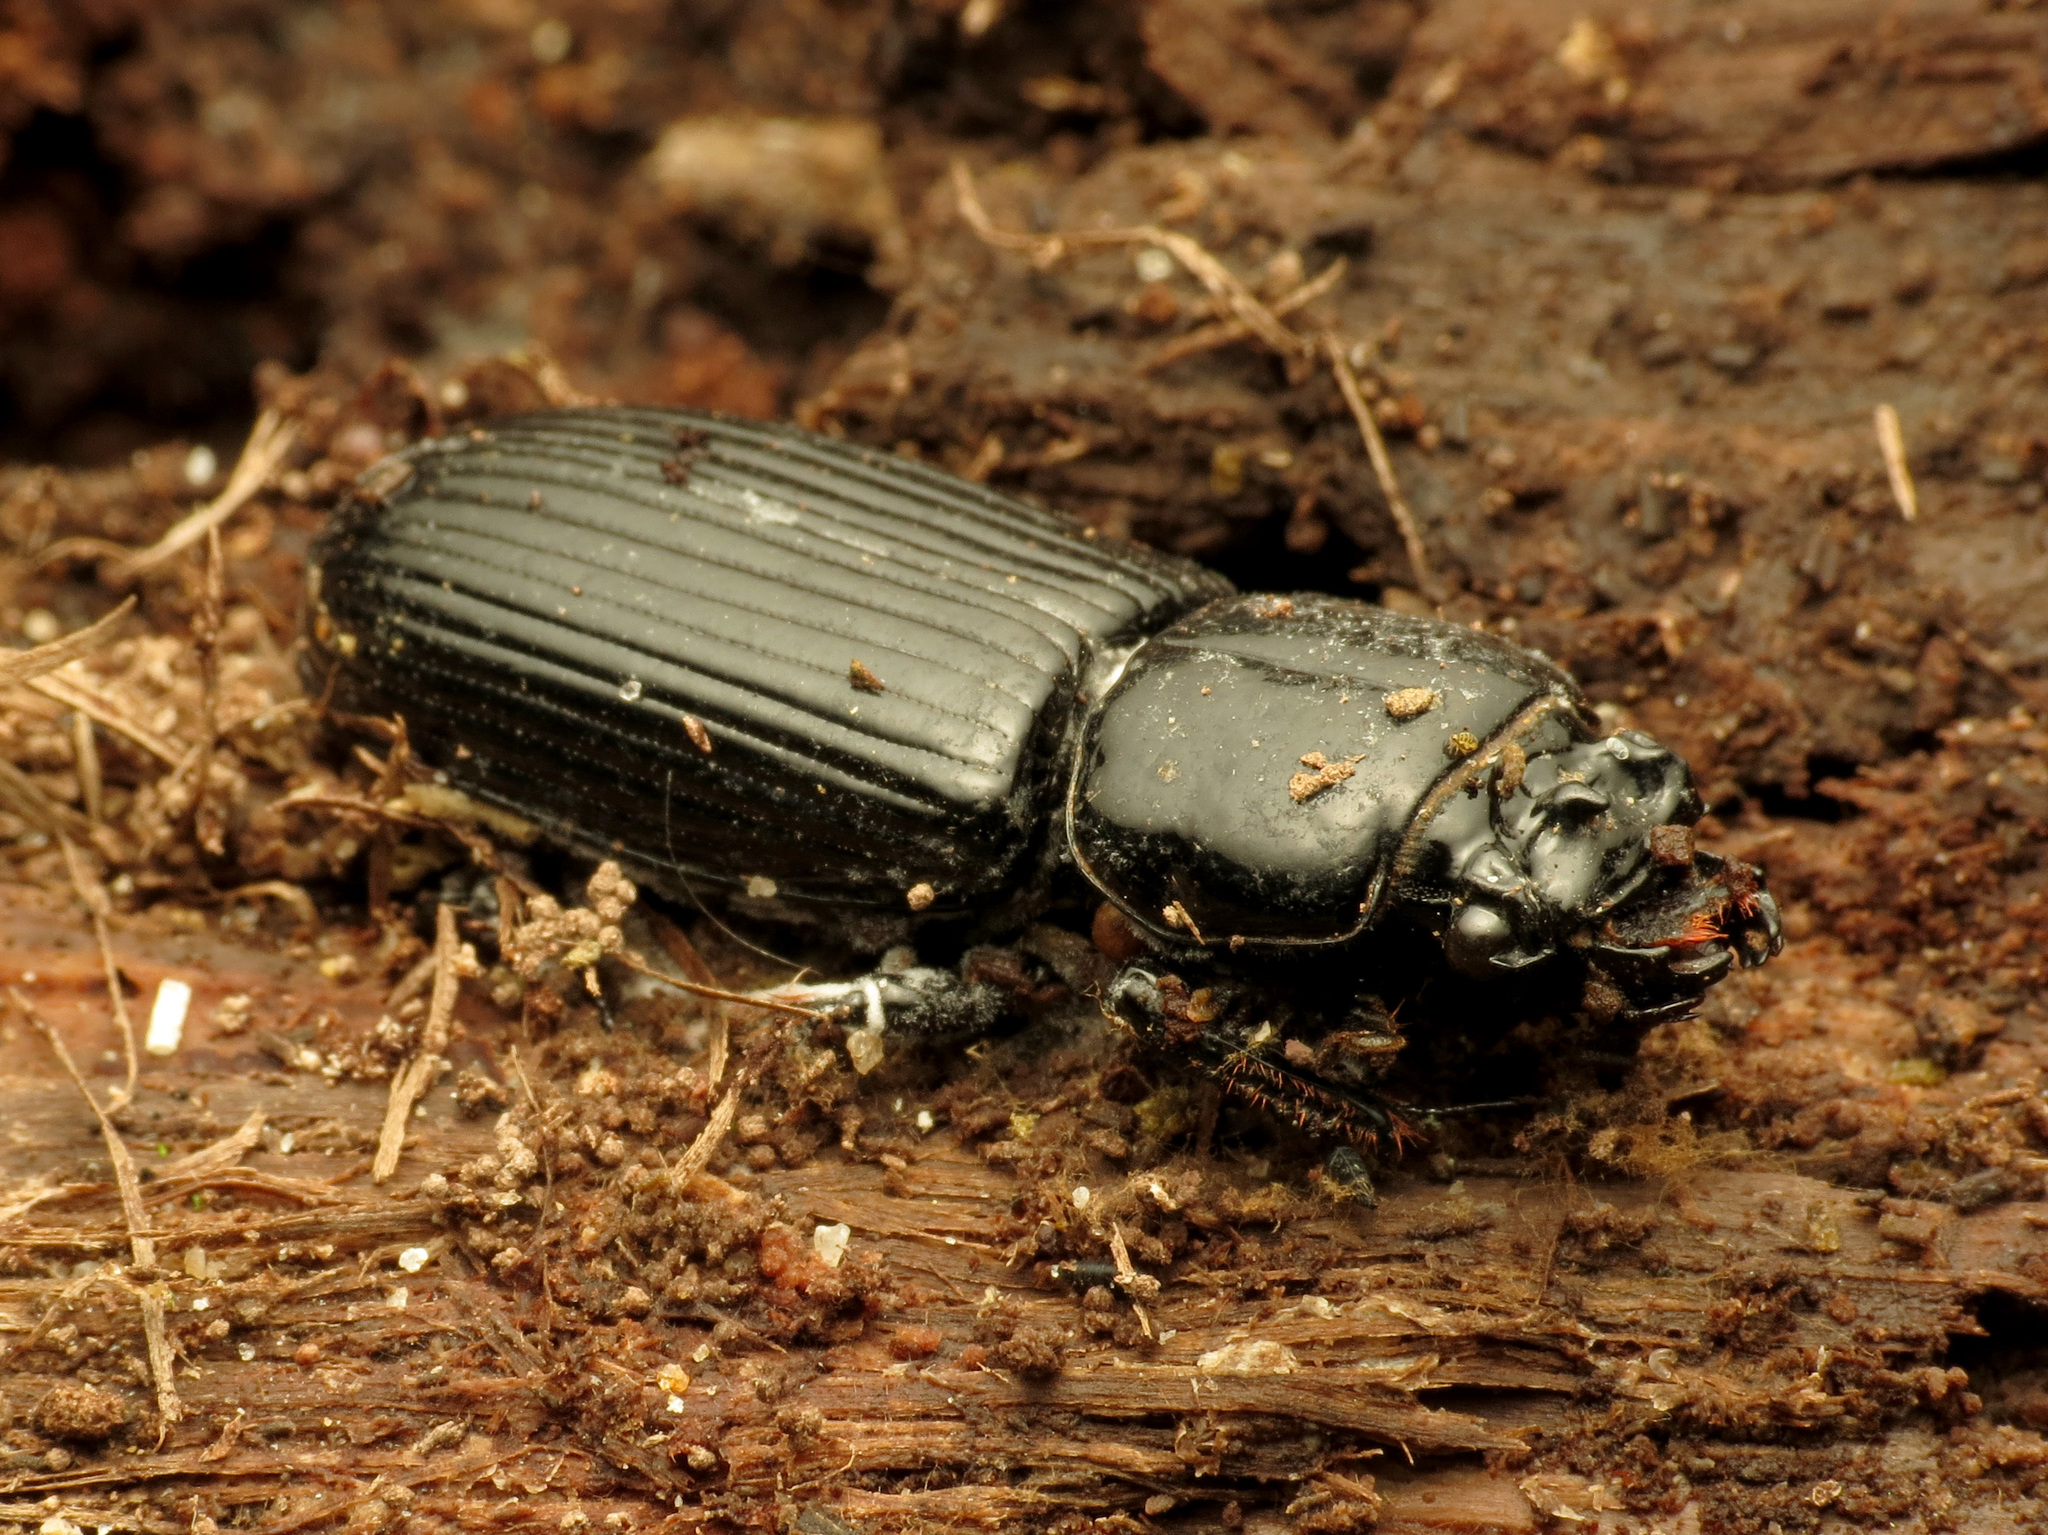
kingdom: Animalia
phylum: Arthropoda
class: Insecta
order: Coleoptera
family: Passalidae
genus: Odontotaenius
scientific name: Odontotaenius disjunctus
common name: Patent leather beetle
